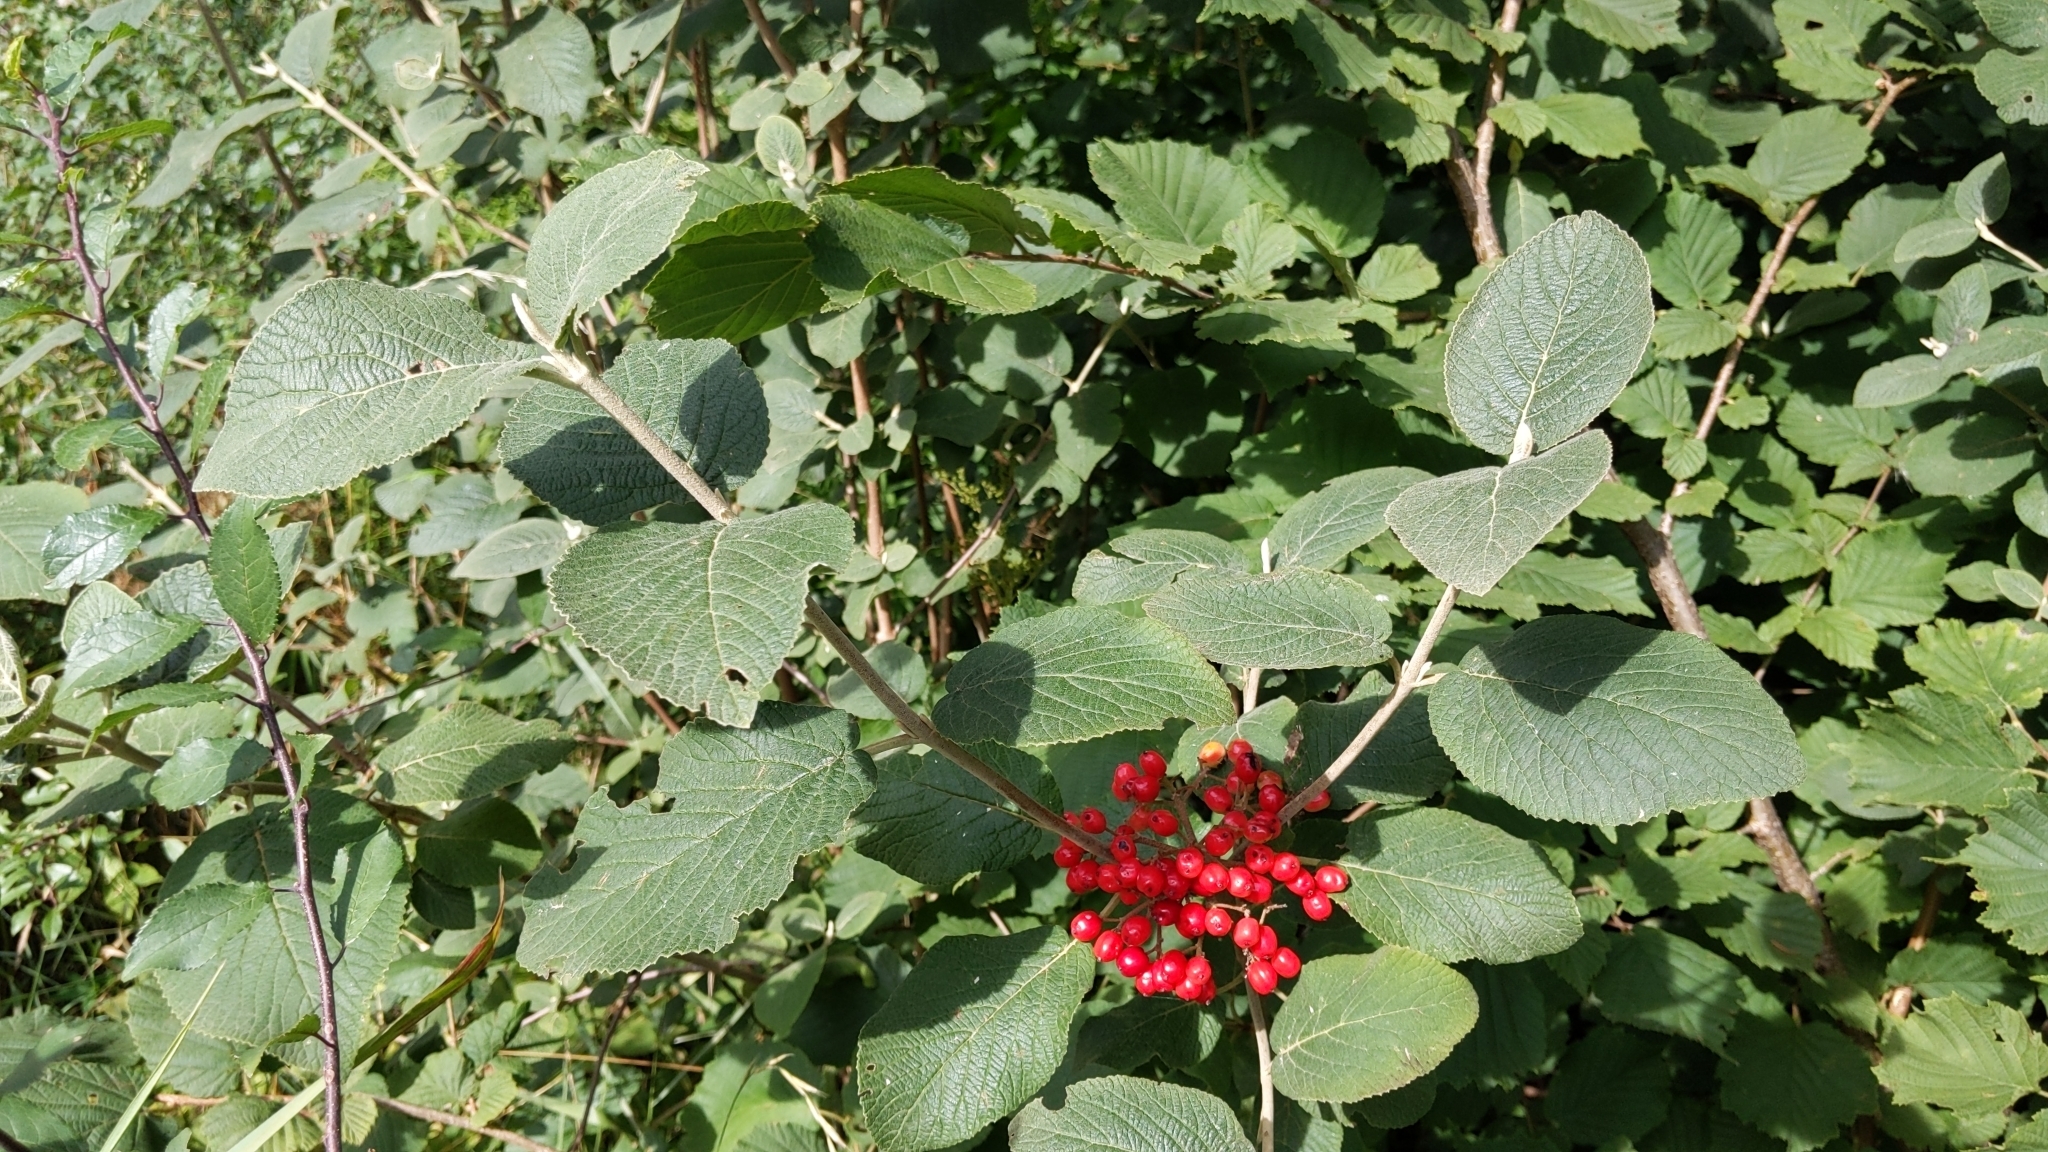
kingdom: Plantae
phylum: Tracheophyta
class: Magnoliopsida
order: Dipsacales
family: Viburnaceae
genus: Viburnum
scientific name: Viburnum lantana
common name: Wayfaring tree
